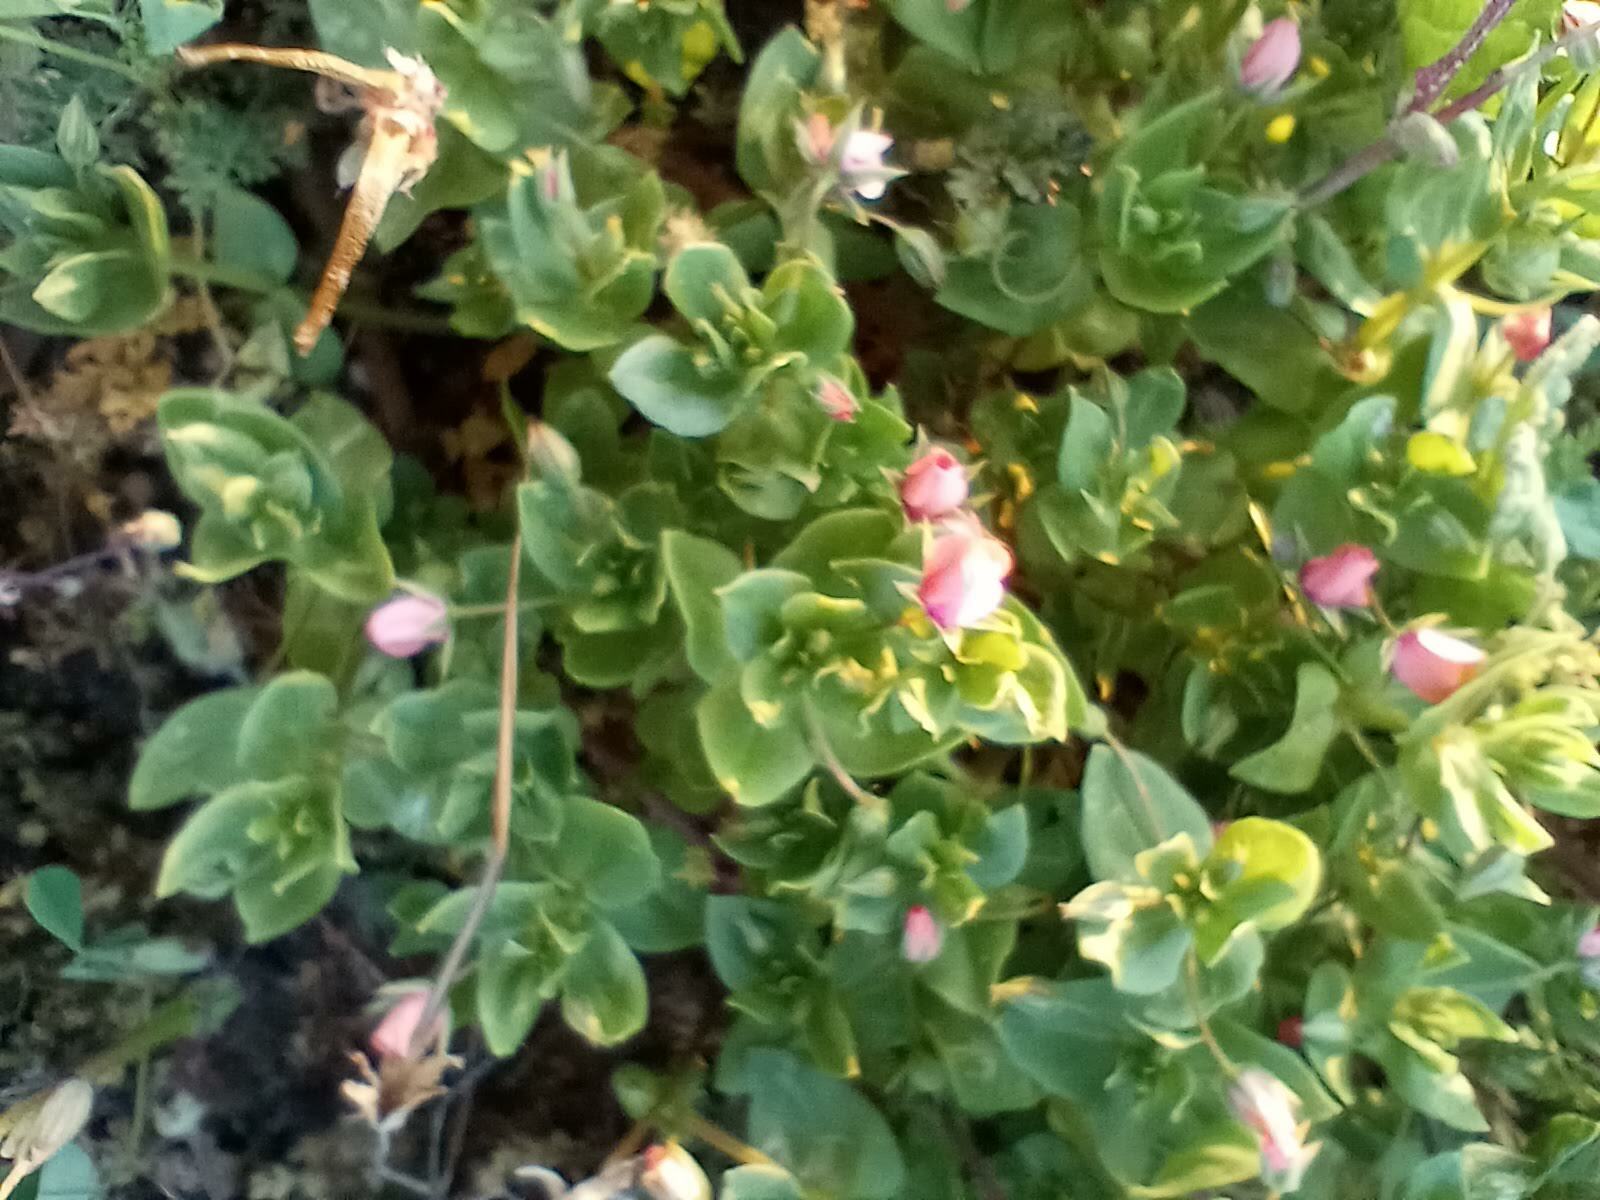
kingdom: Plantae
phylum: Tracheophyta
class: Magnoliopsida
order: Ericales
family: Primulaceae
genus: Lysimachia
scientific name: Lysimachia arvensis
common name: Scarlet pimpernel
